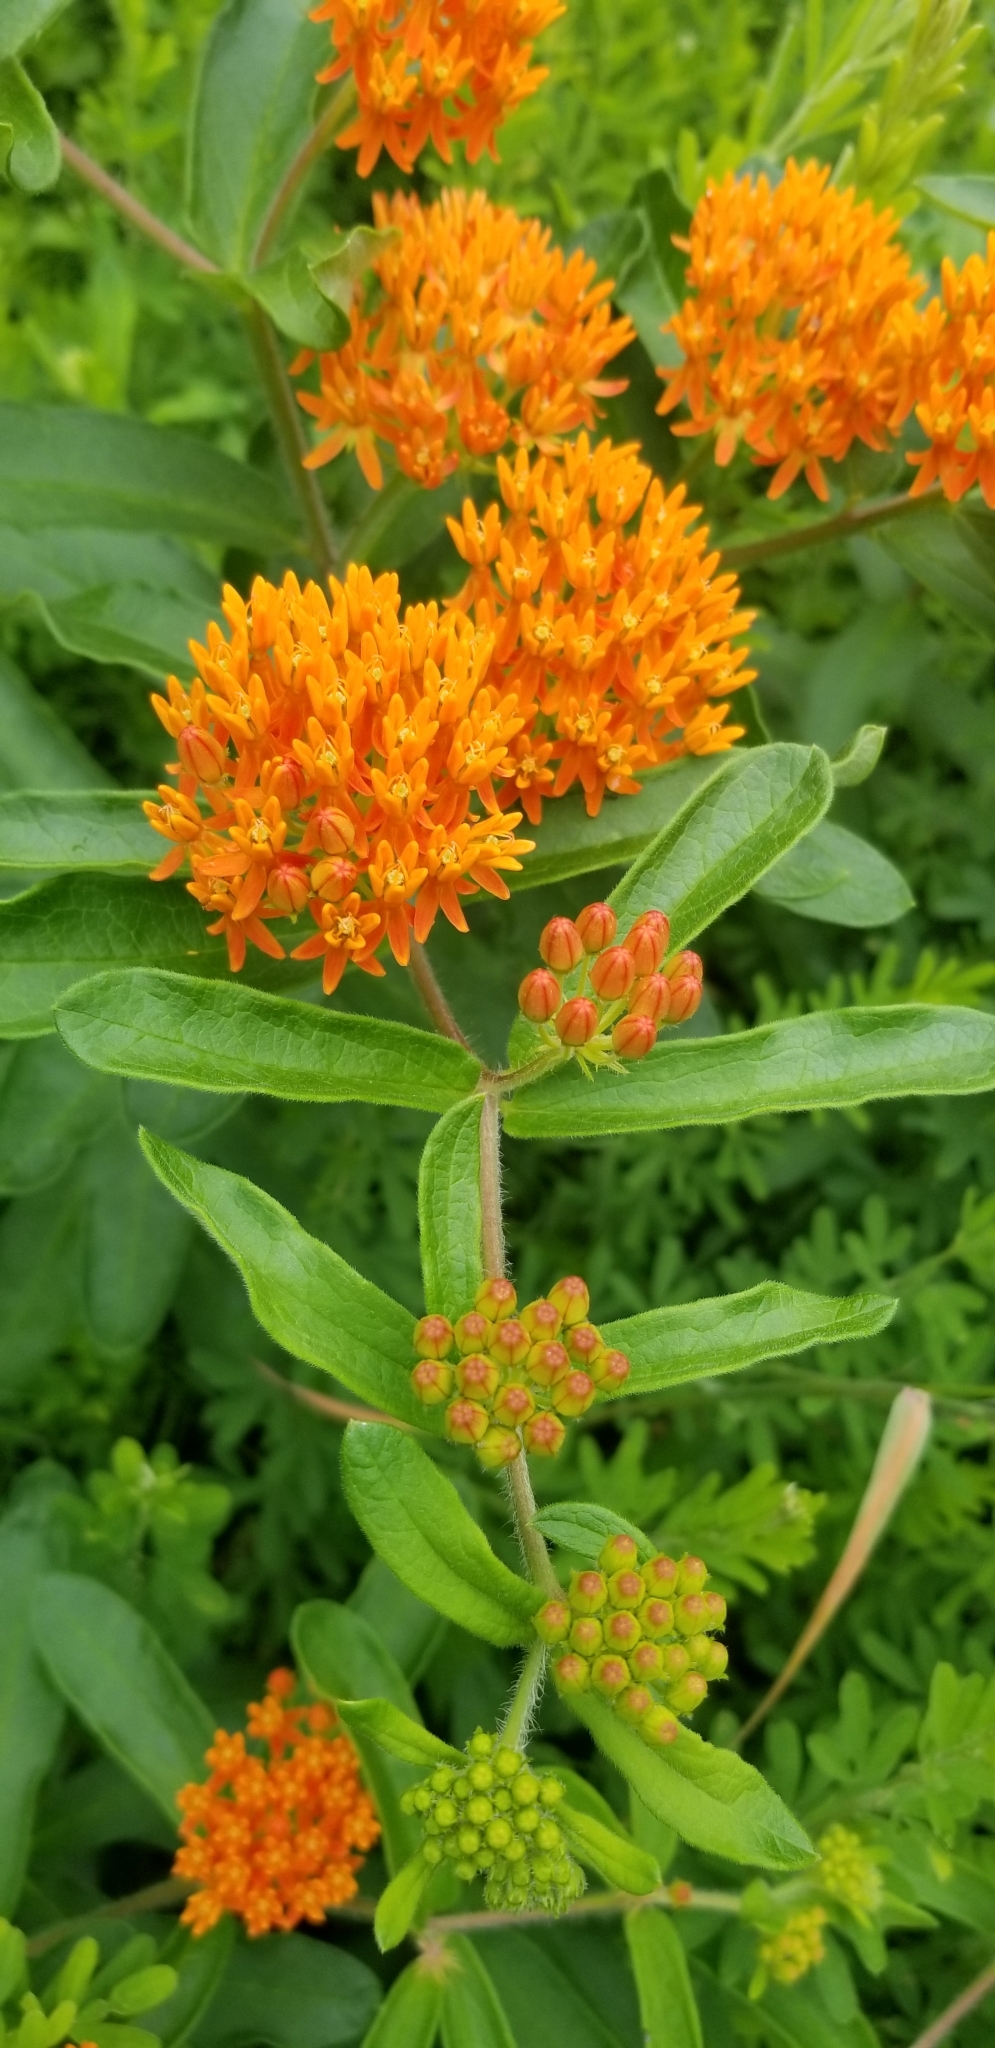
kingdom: Plantae
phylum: Tracheophyta
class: Magnoliopsida
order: Gentianales
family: Apocynaceae
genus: Asclepias
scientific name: Asclepias tuberosa
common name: Butterfly milkweed
